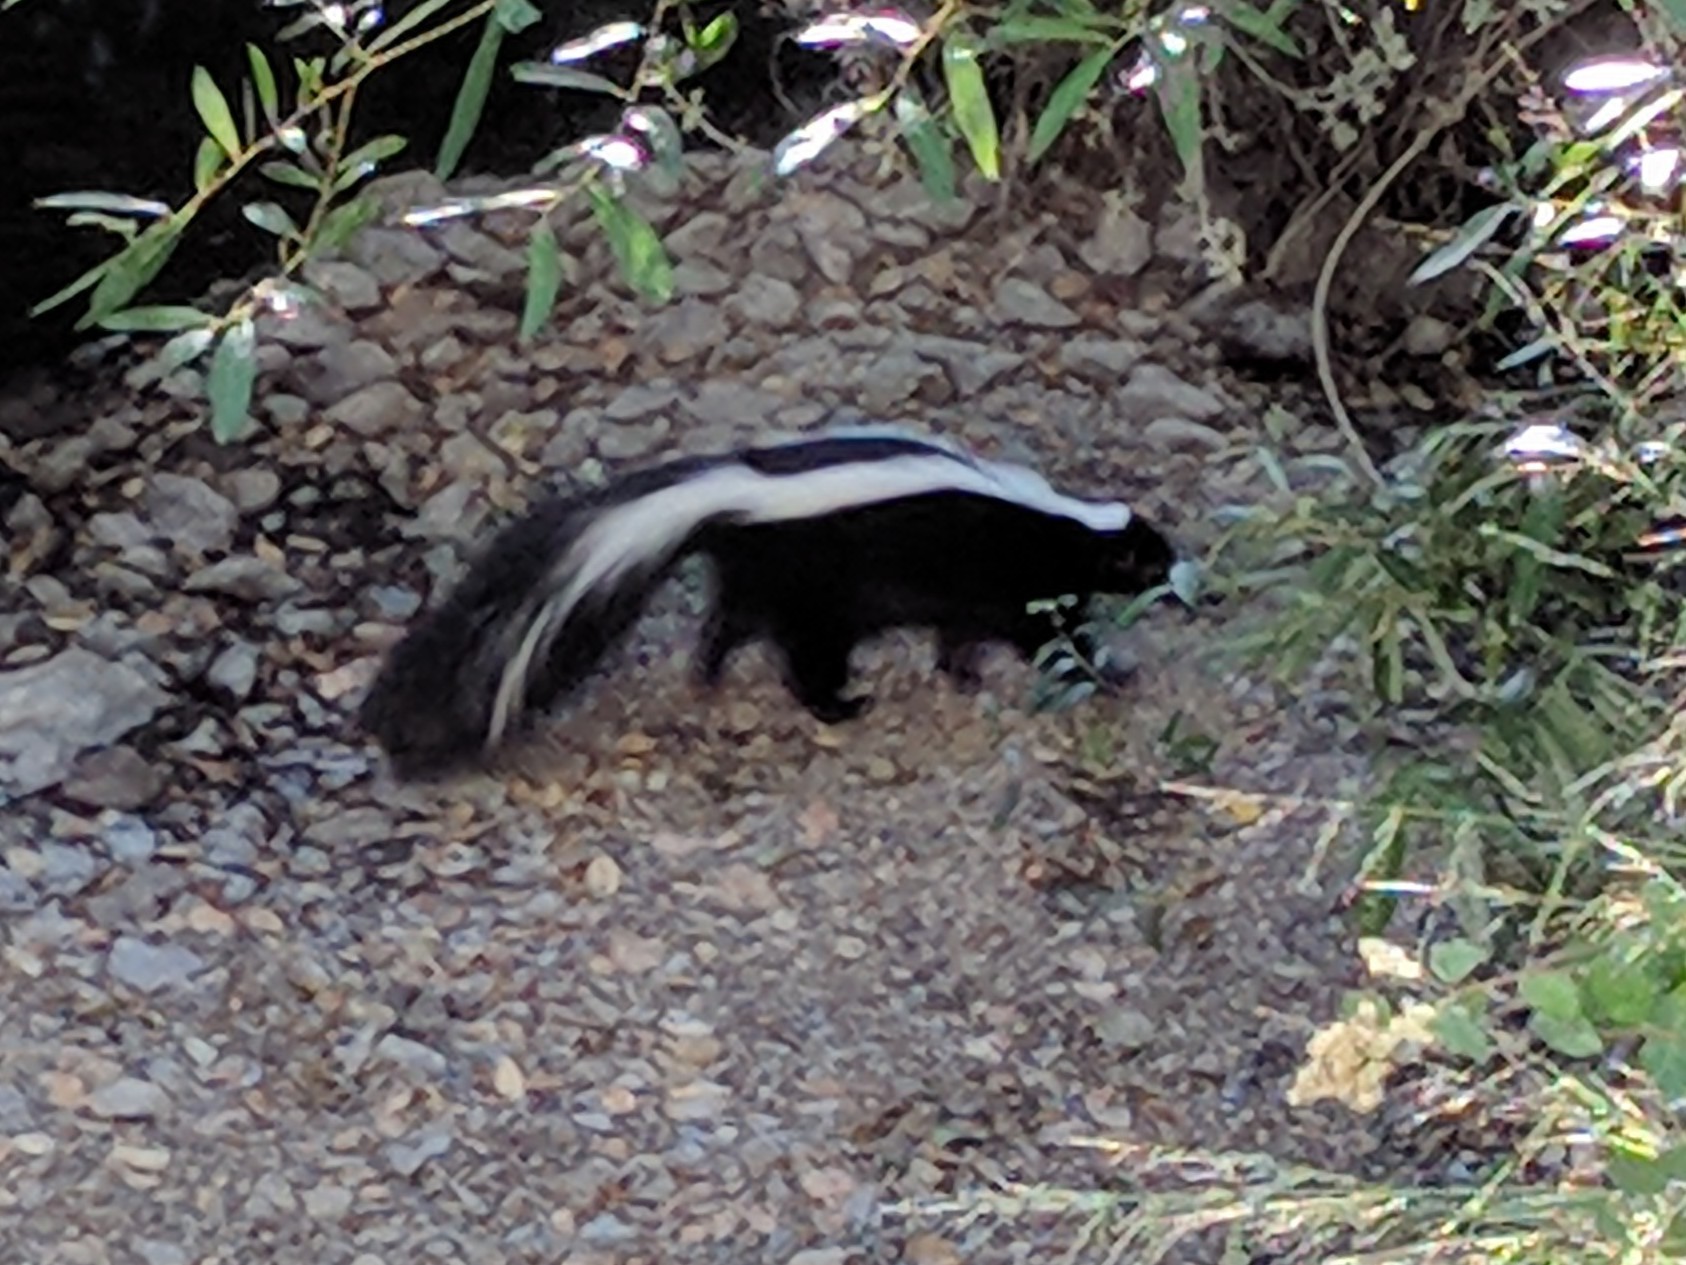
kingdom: Animalia
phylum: Chordata
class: Mammalia
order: Carnivora
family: Mephitidae
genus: Mephitis
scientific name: Mephitis mephitis
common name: Striped skunk
